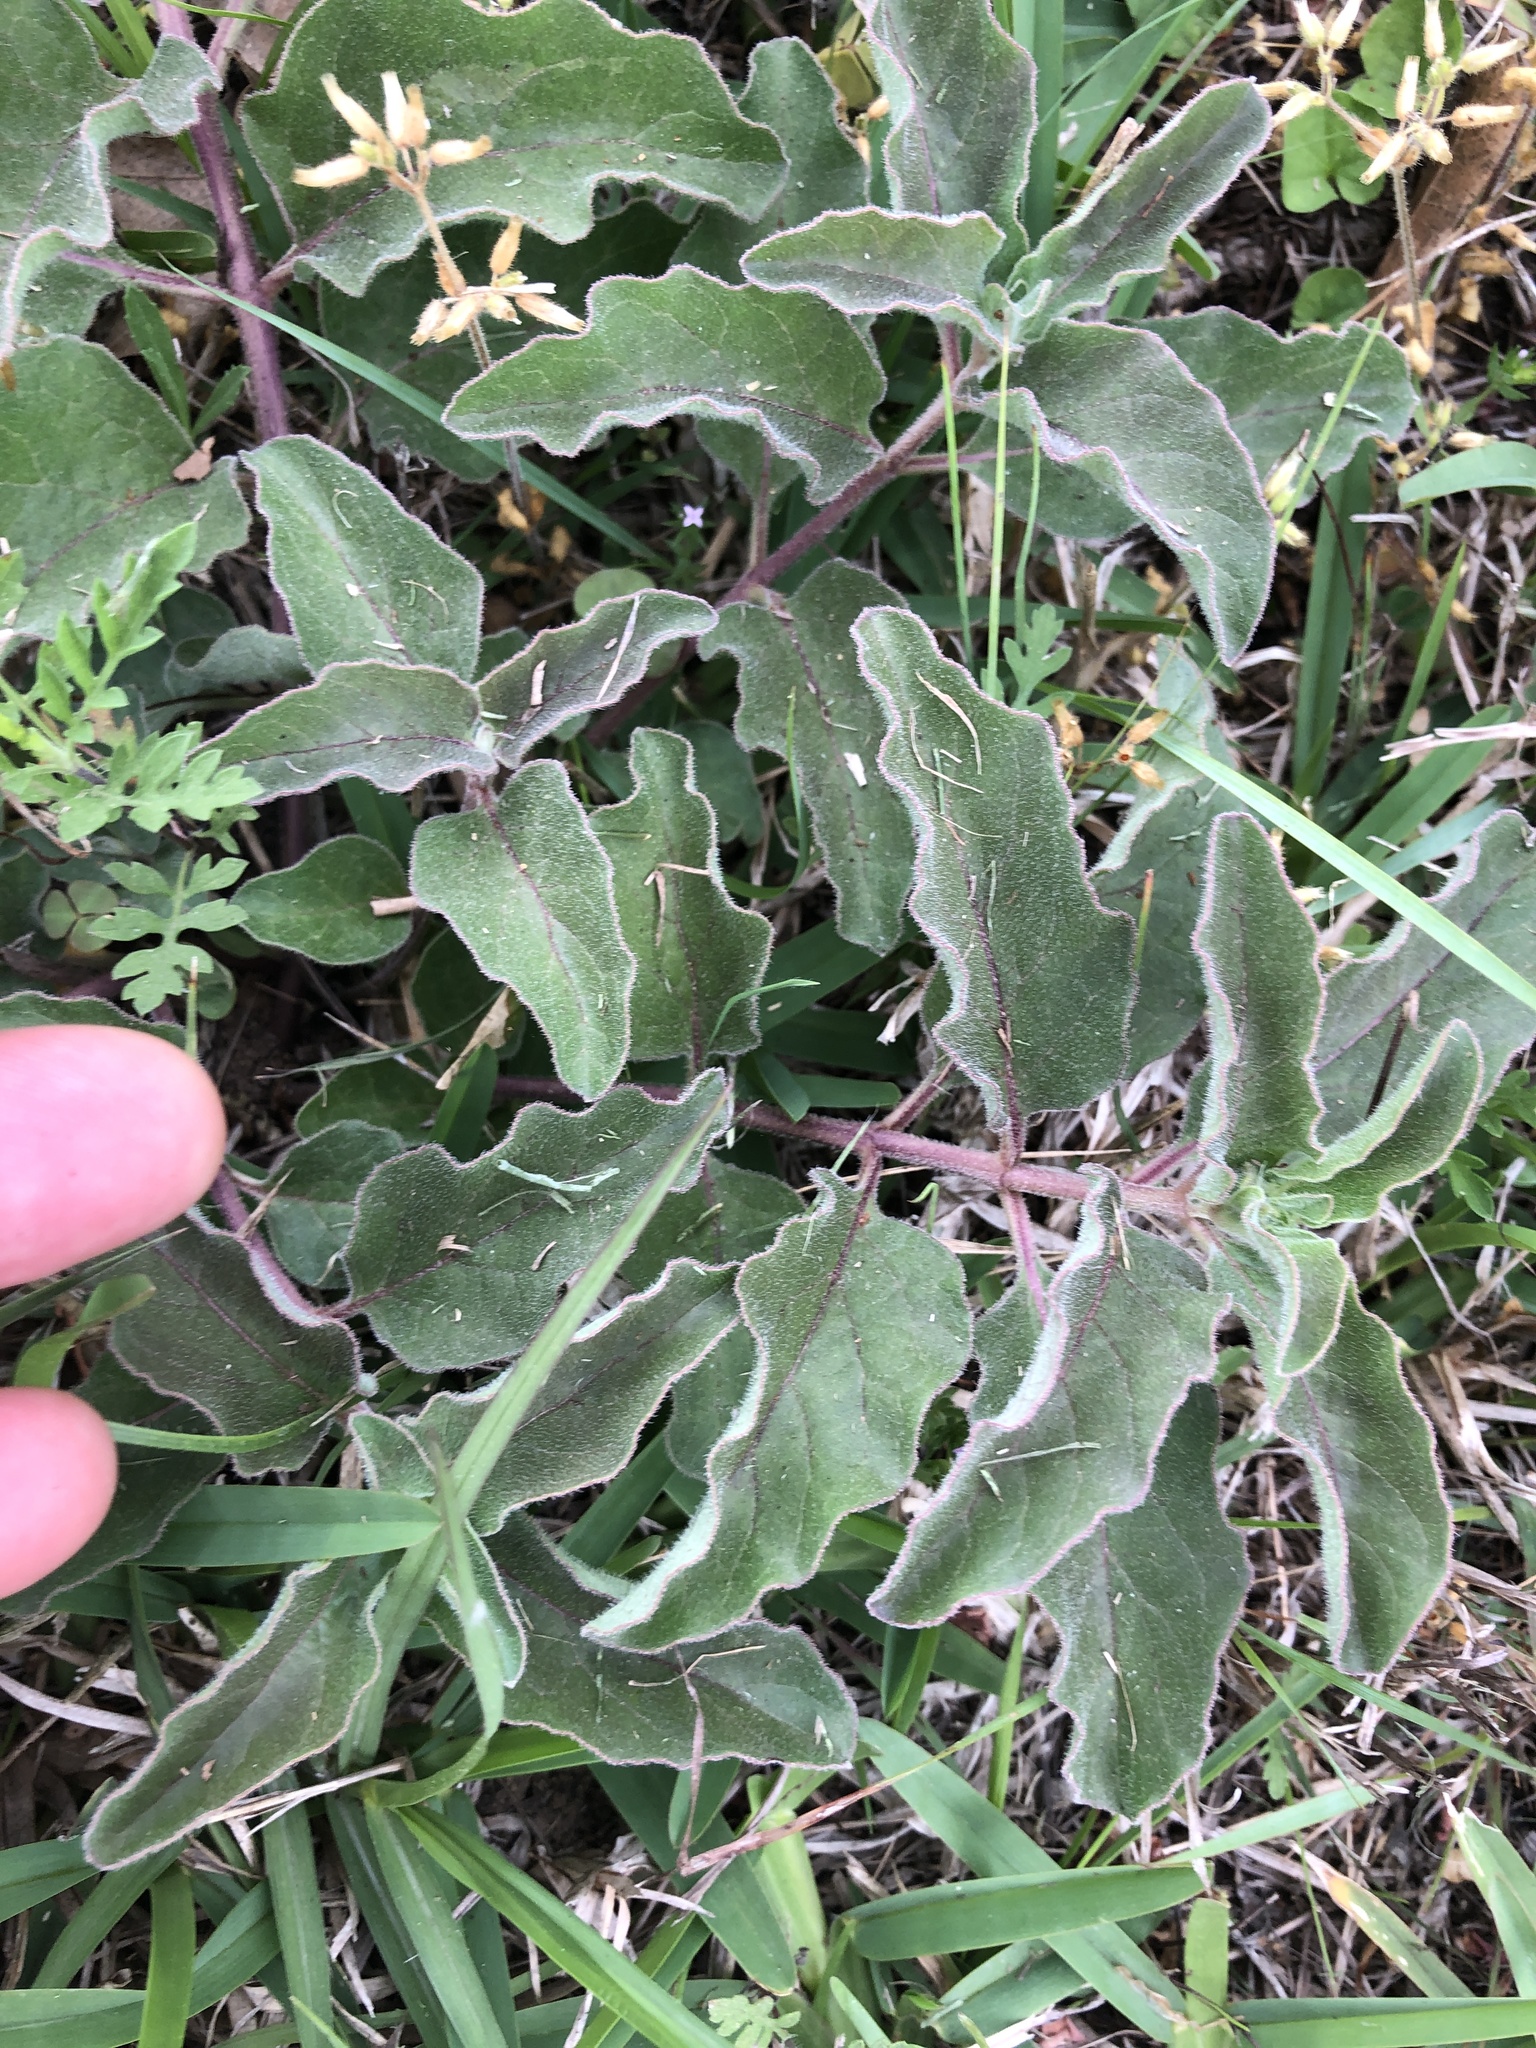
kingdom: Plantae
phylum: Tracheophyta
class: Magnoliopsida
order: Gentianales
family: Apocynaceae
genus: Asclepias
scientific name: Asclepias oenotheroides
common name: Zizotes milkweed
